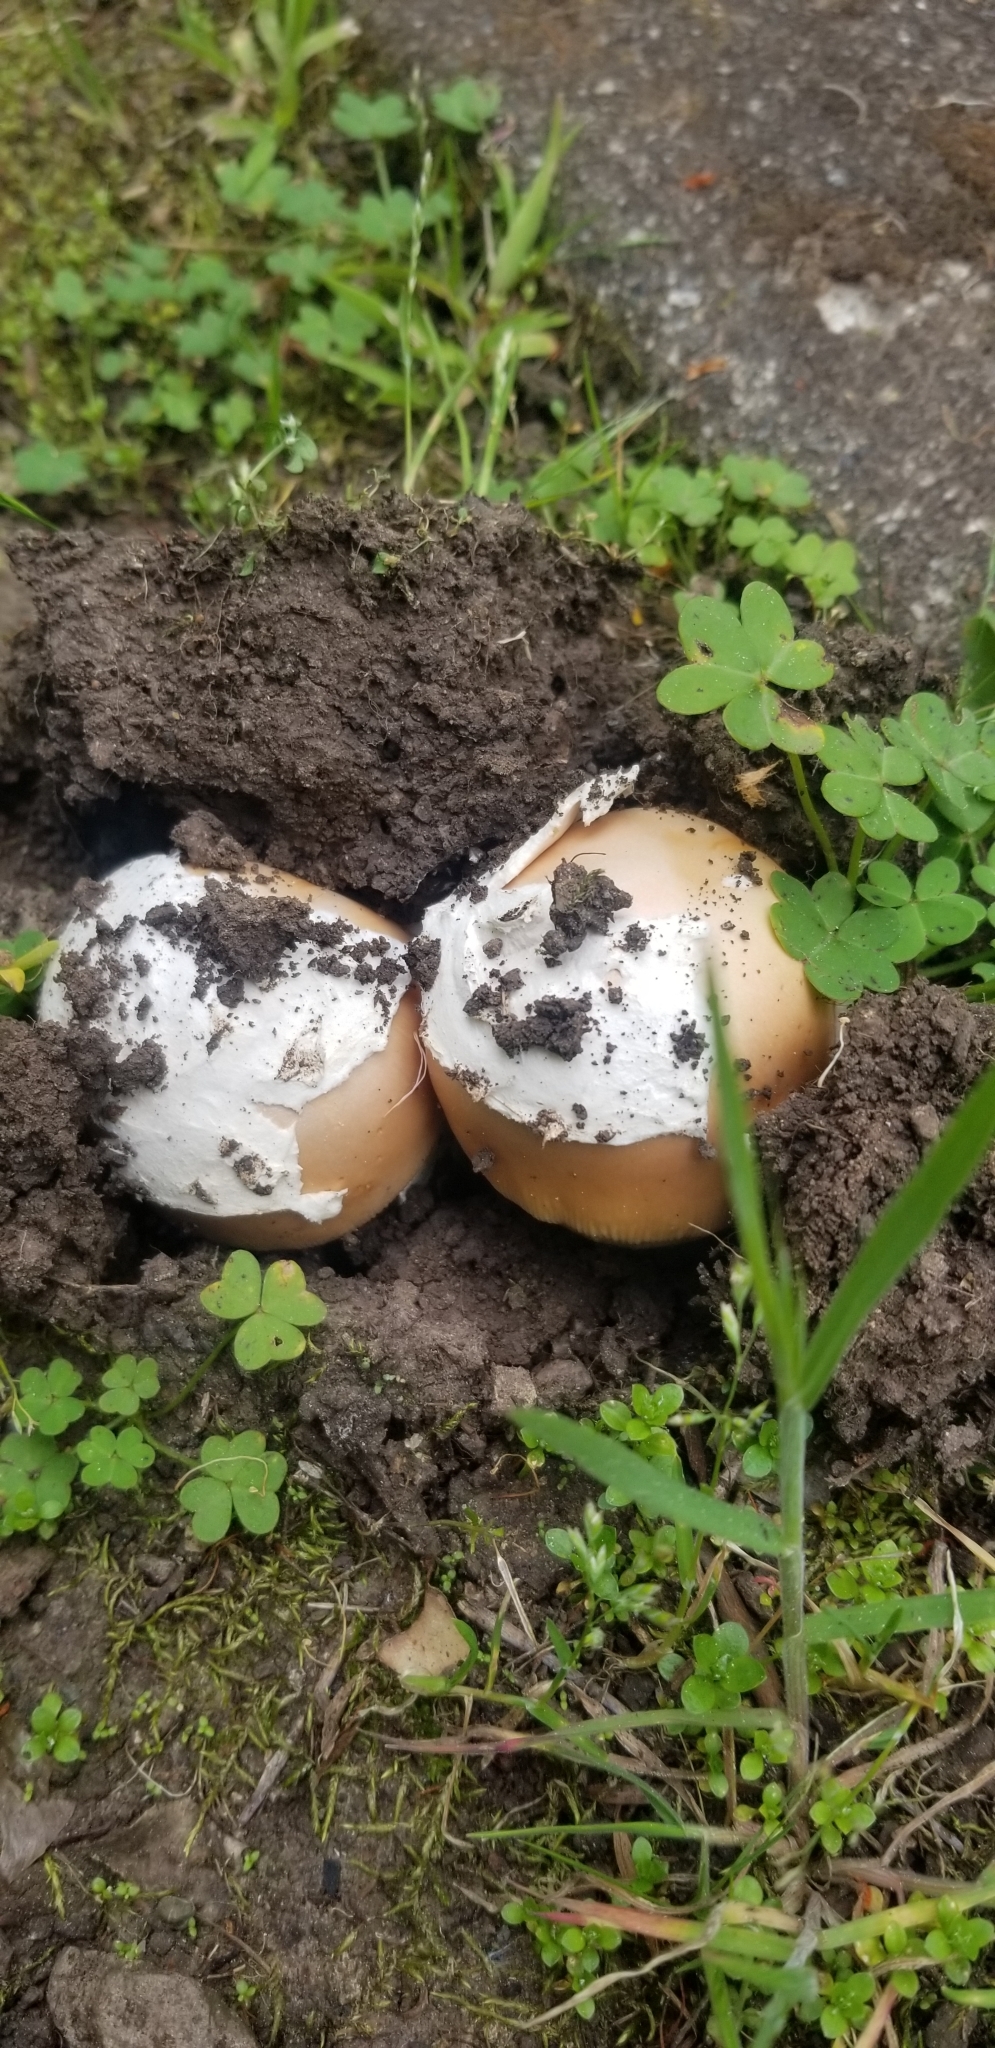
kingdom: Fungi
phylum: Basidiomycota
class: Agaricomycetes
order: Agaricales
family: Amanitaceae
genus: Amanita
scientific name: Amanita velosa
